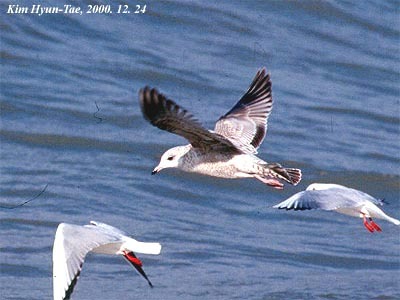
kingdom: Animalia
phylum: Chordata
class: Aves
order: Charadriiformes
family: Laridae
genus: Larus
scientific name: Larus canus
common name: Mew gull
